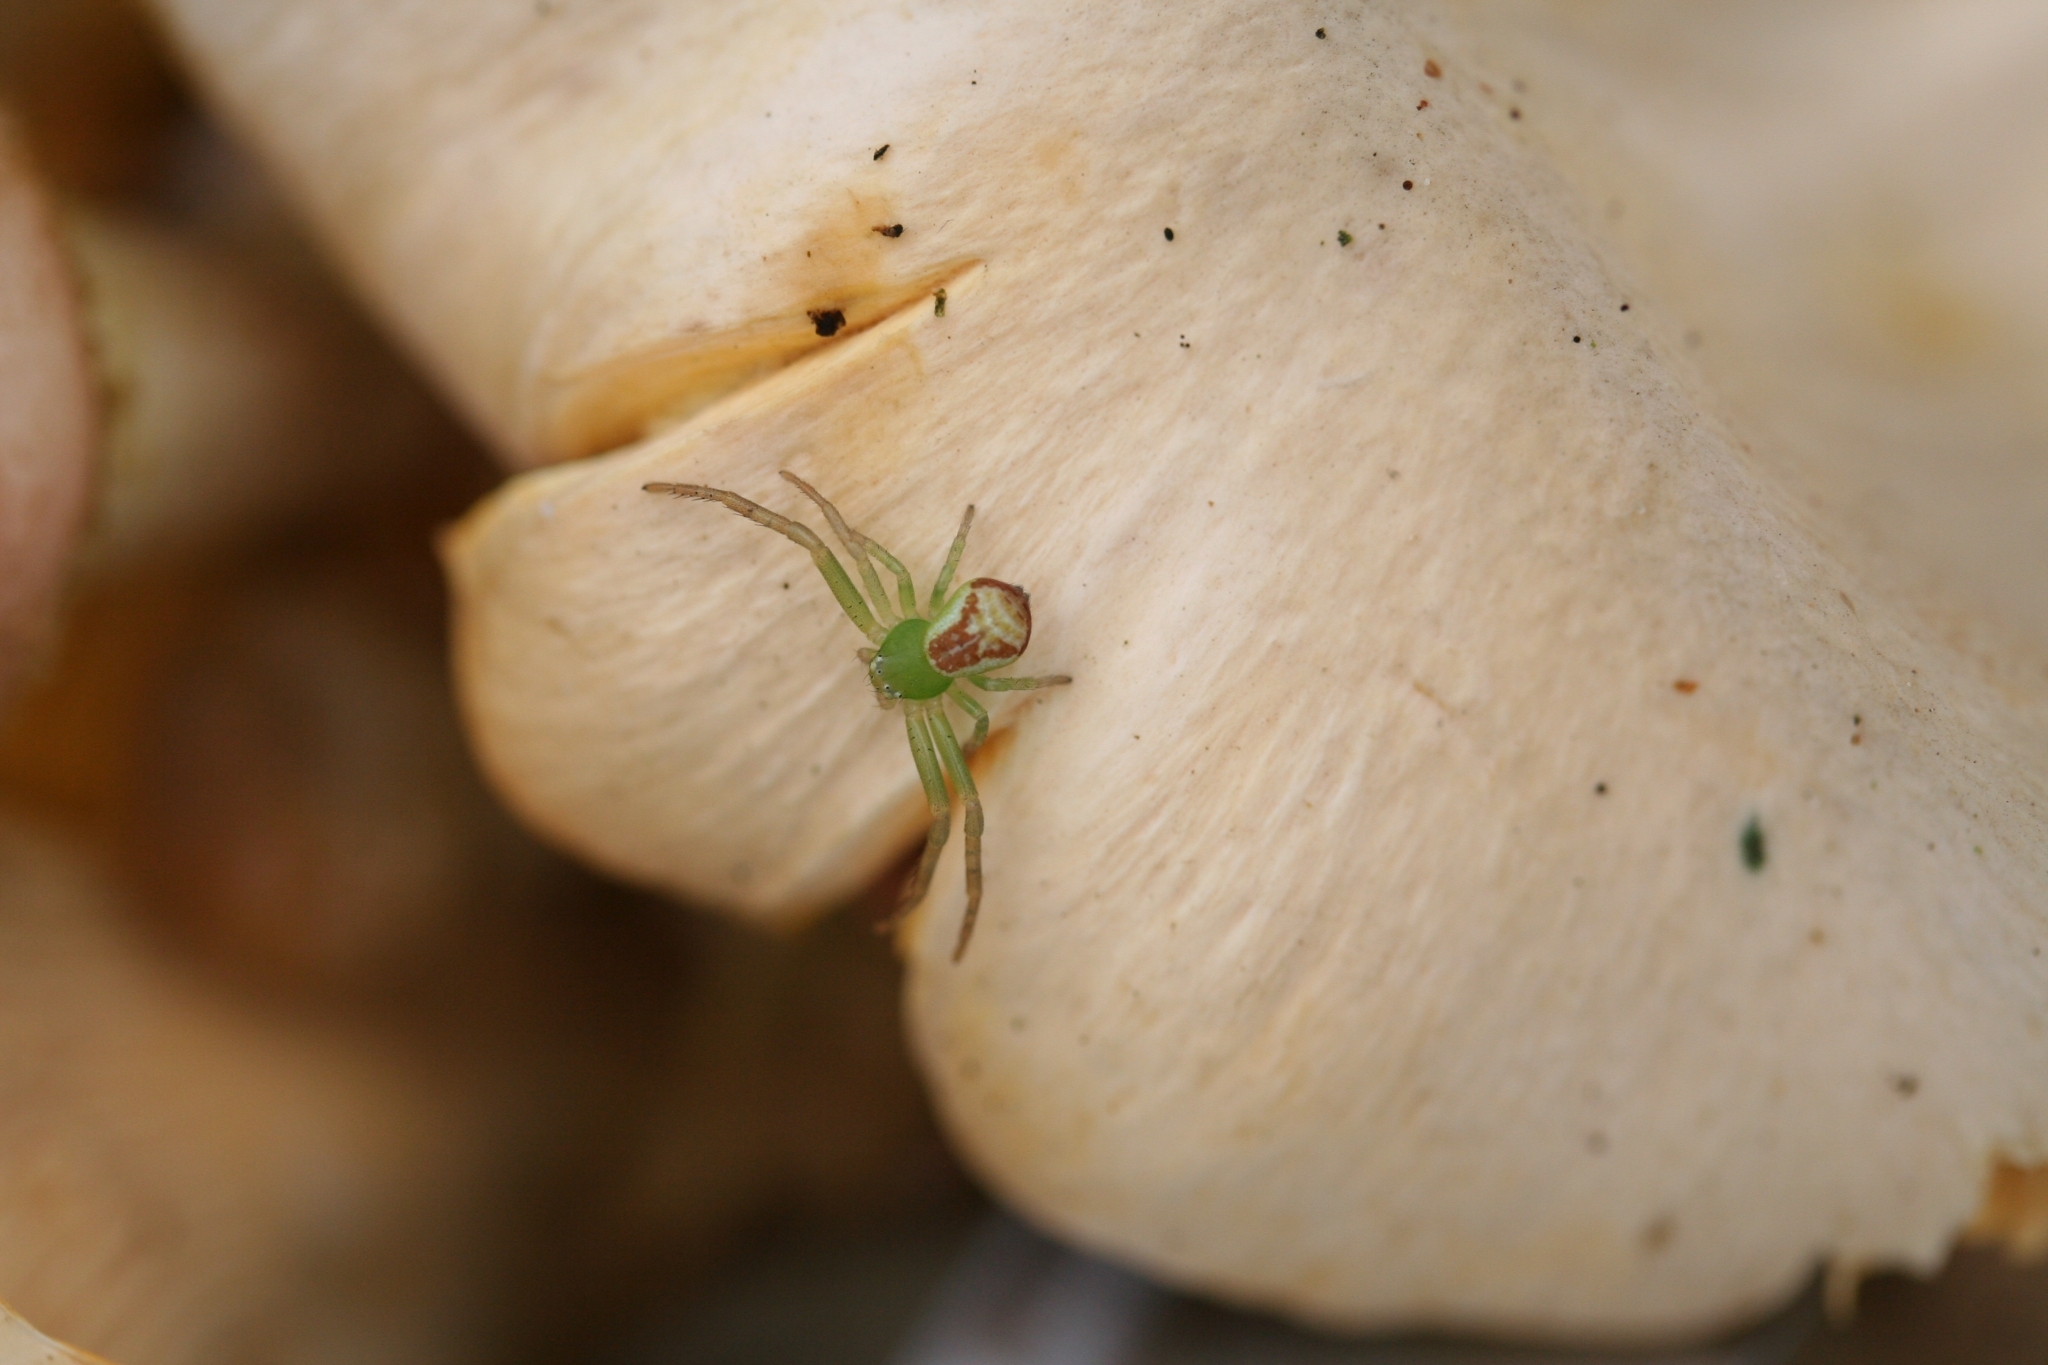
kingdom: Animalia
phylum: Arthropoda
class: Arachnida
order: Araneae
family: Thomisidae
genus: Ebrechtella
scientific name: Ebrechtella tricuspidata
